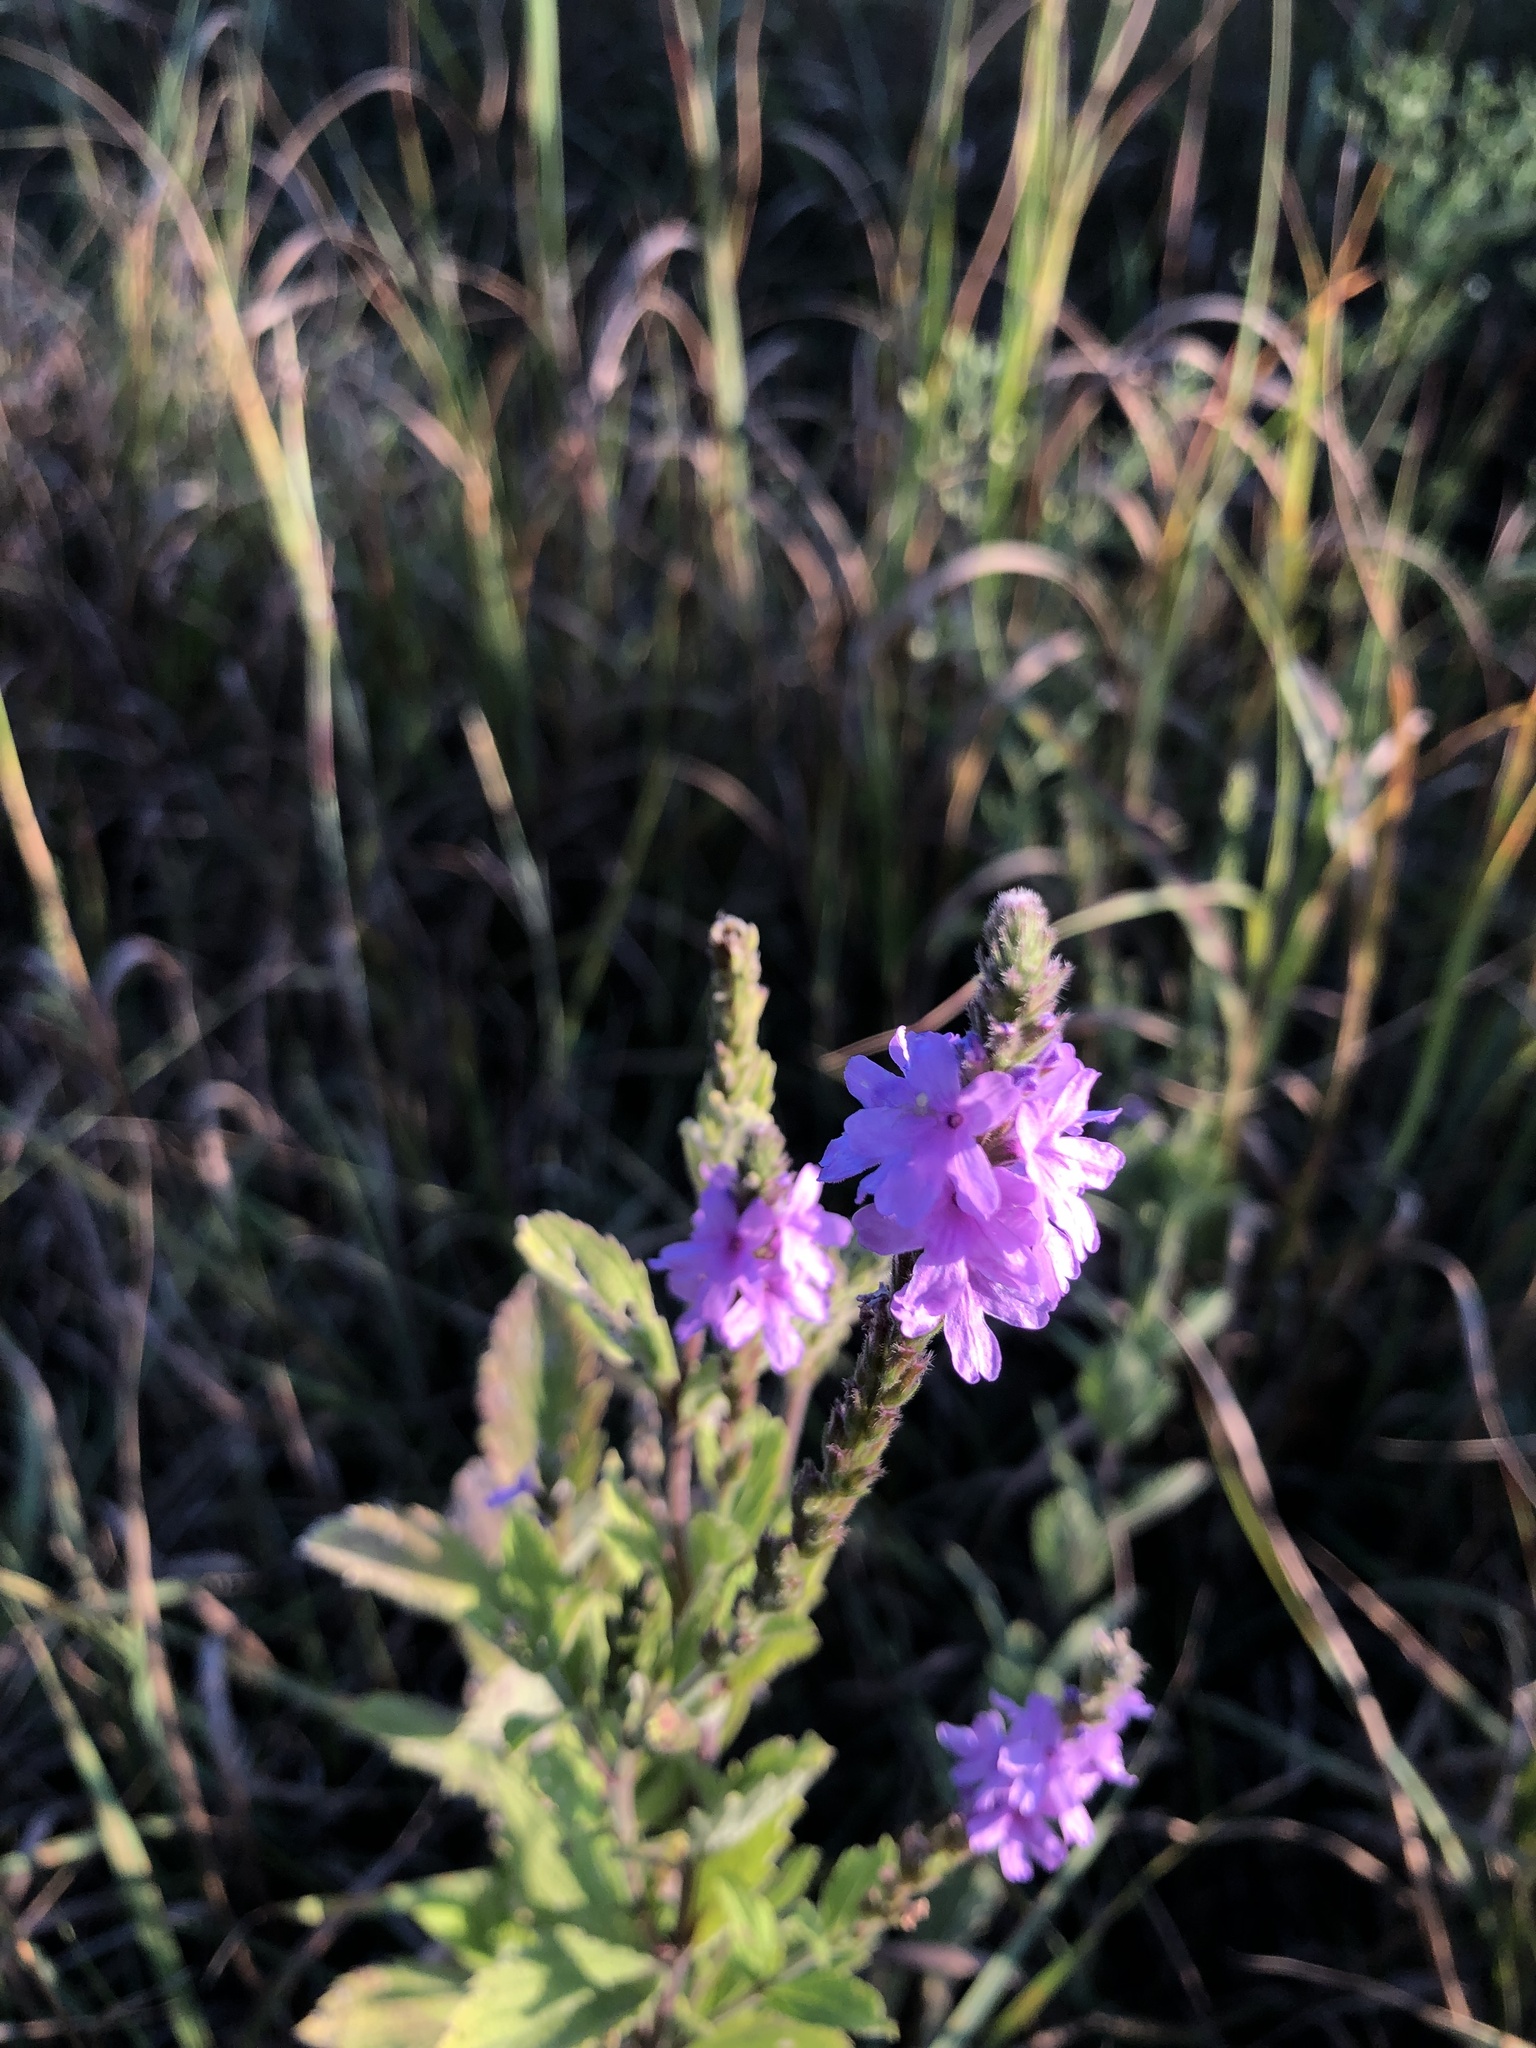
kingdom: Plantae
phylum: Tracheophyta
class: Magnoliopsida
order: Lamiales
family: Verbenaceae
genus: Verbena
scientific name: Verbena stricta
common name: Hoary vervain
